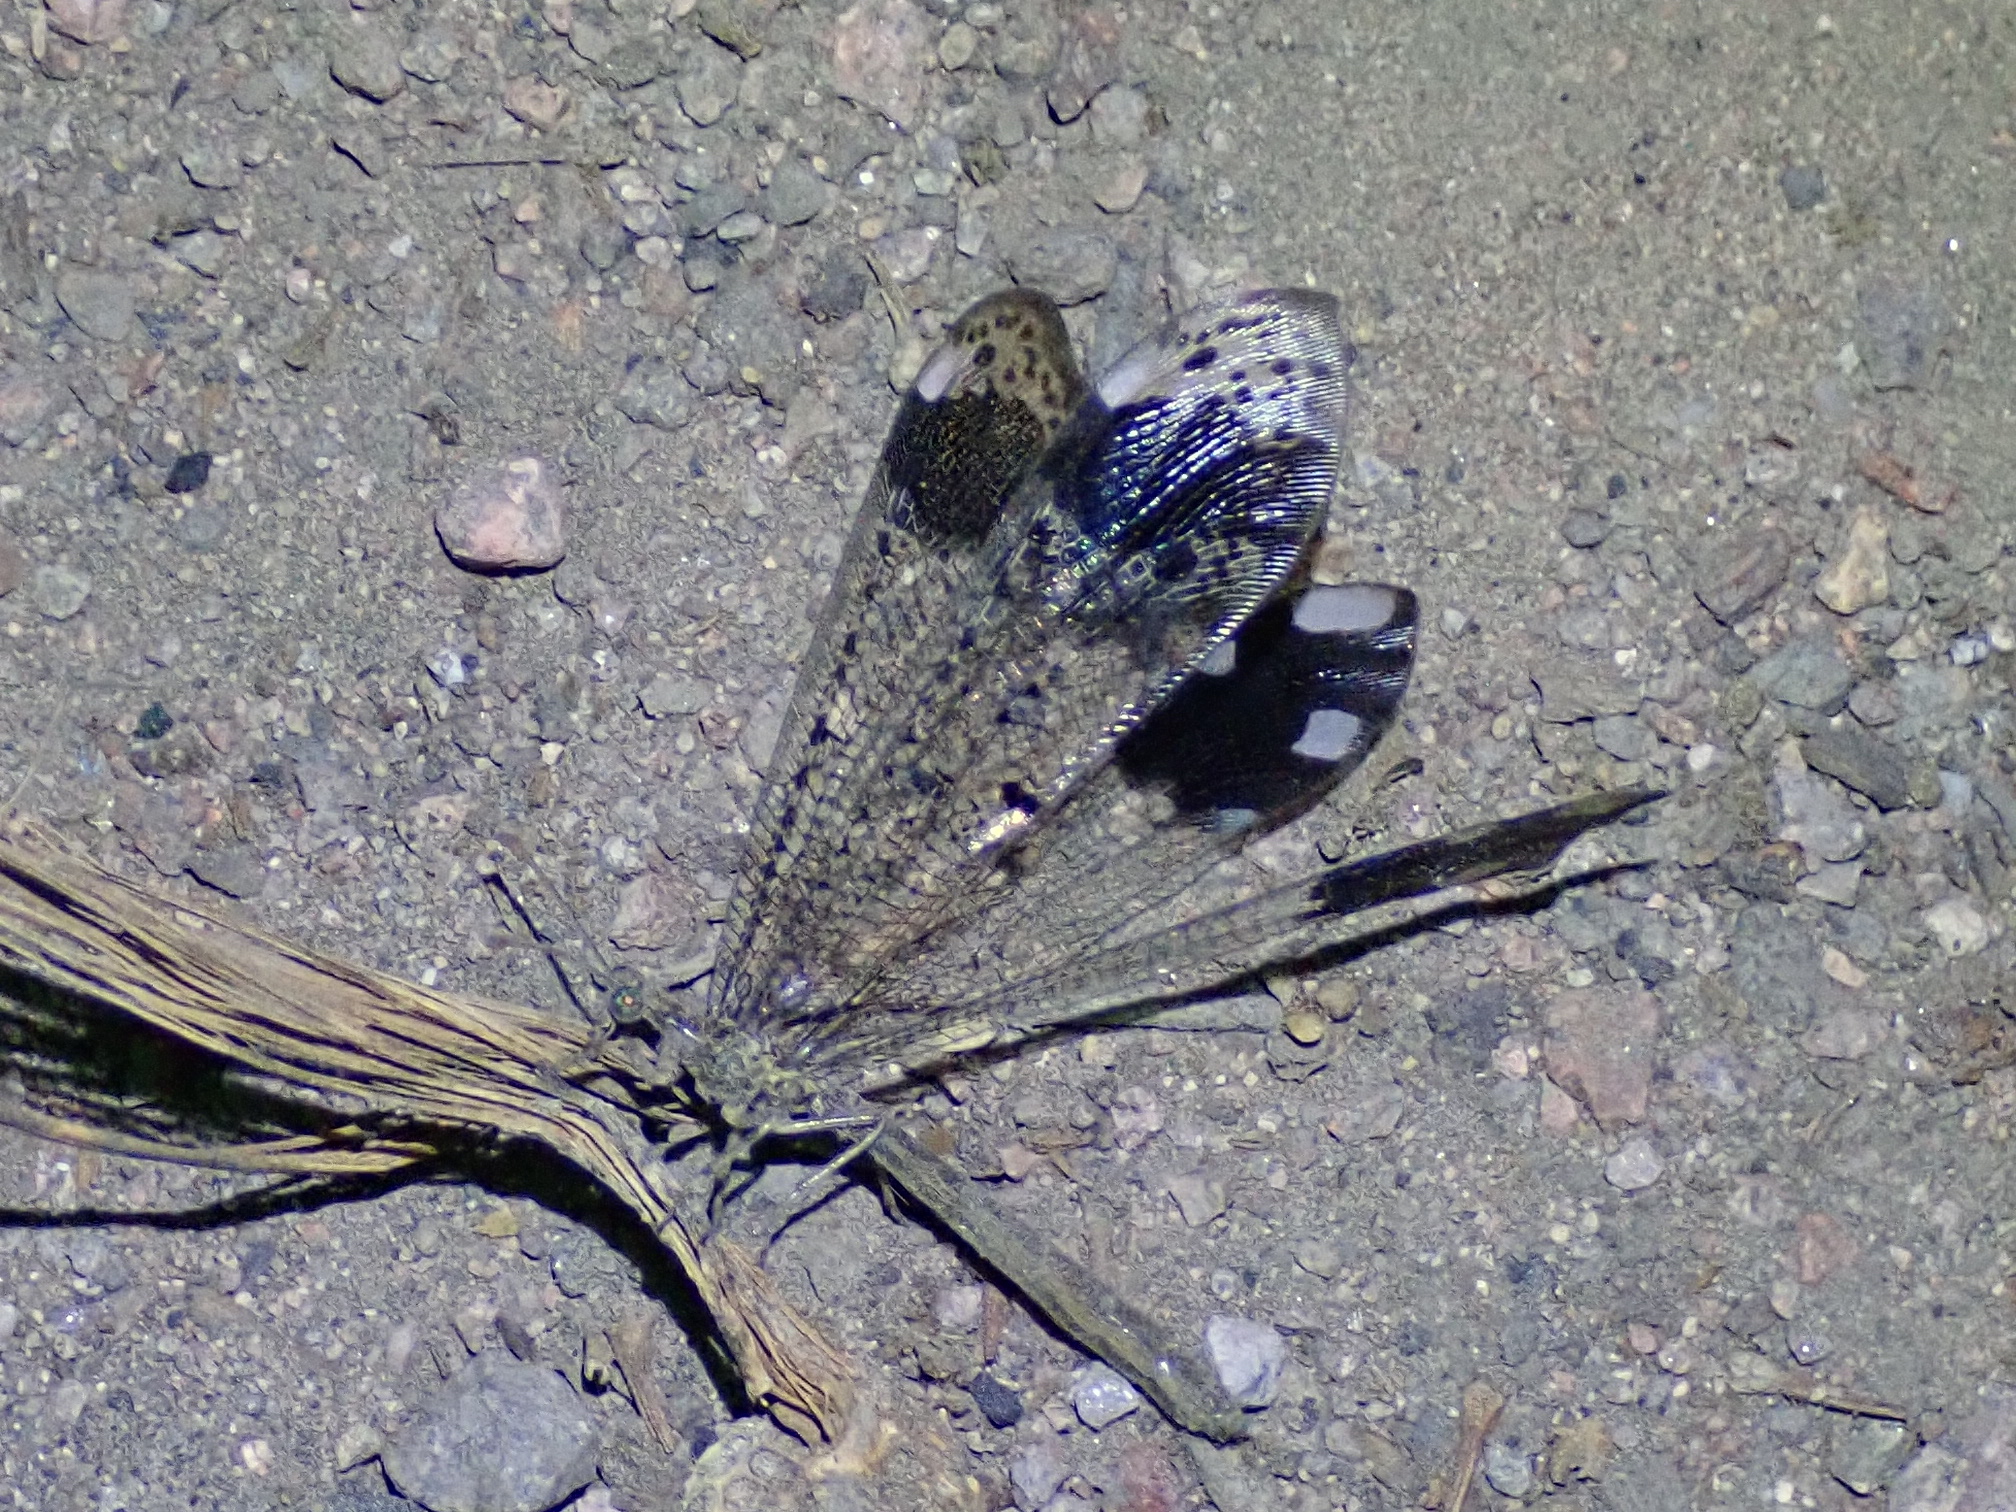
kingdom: Animalia
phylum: Arthropoda
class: Insecta
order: Neuroptera
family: Myrmeleontidae
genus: Glenurus
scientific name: Glenurus luniger
